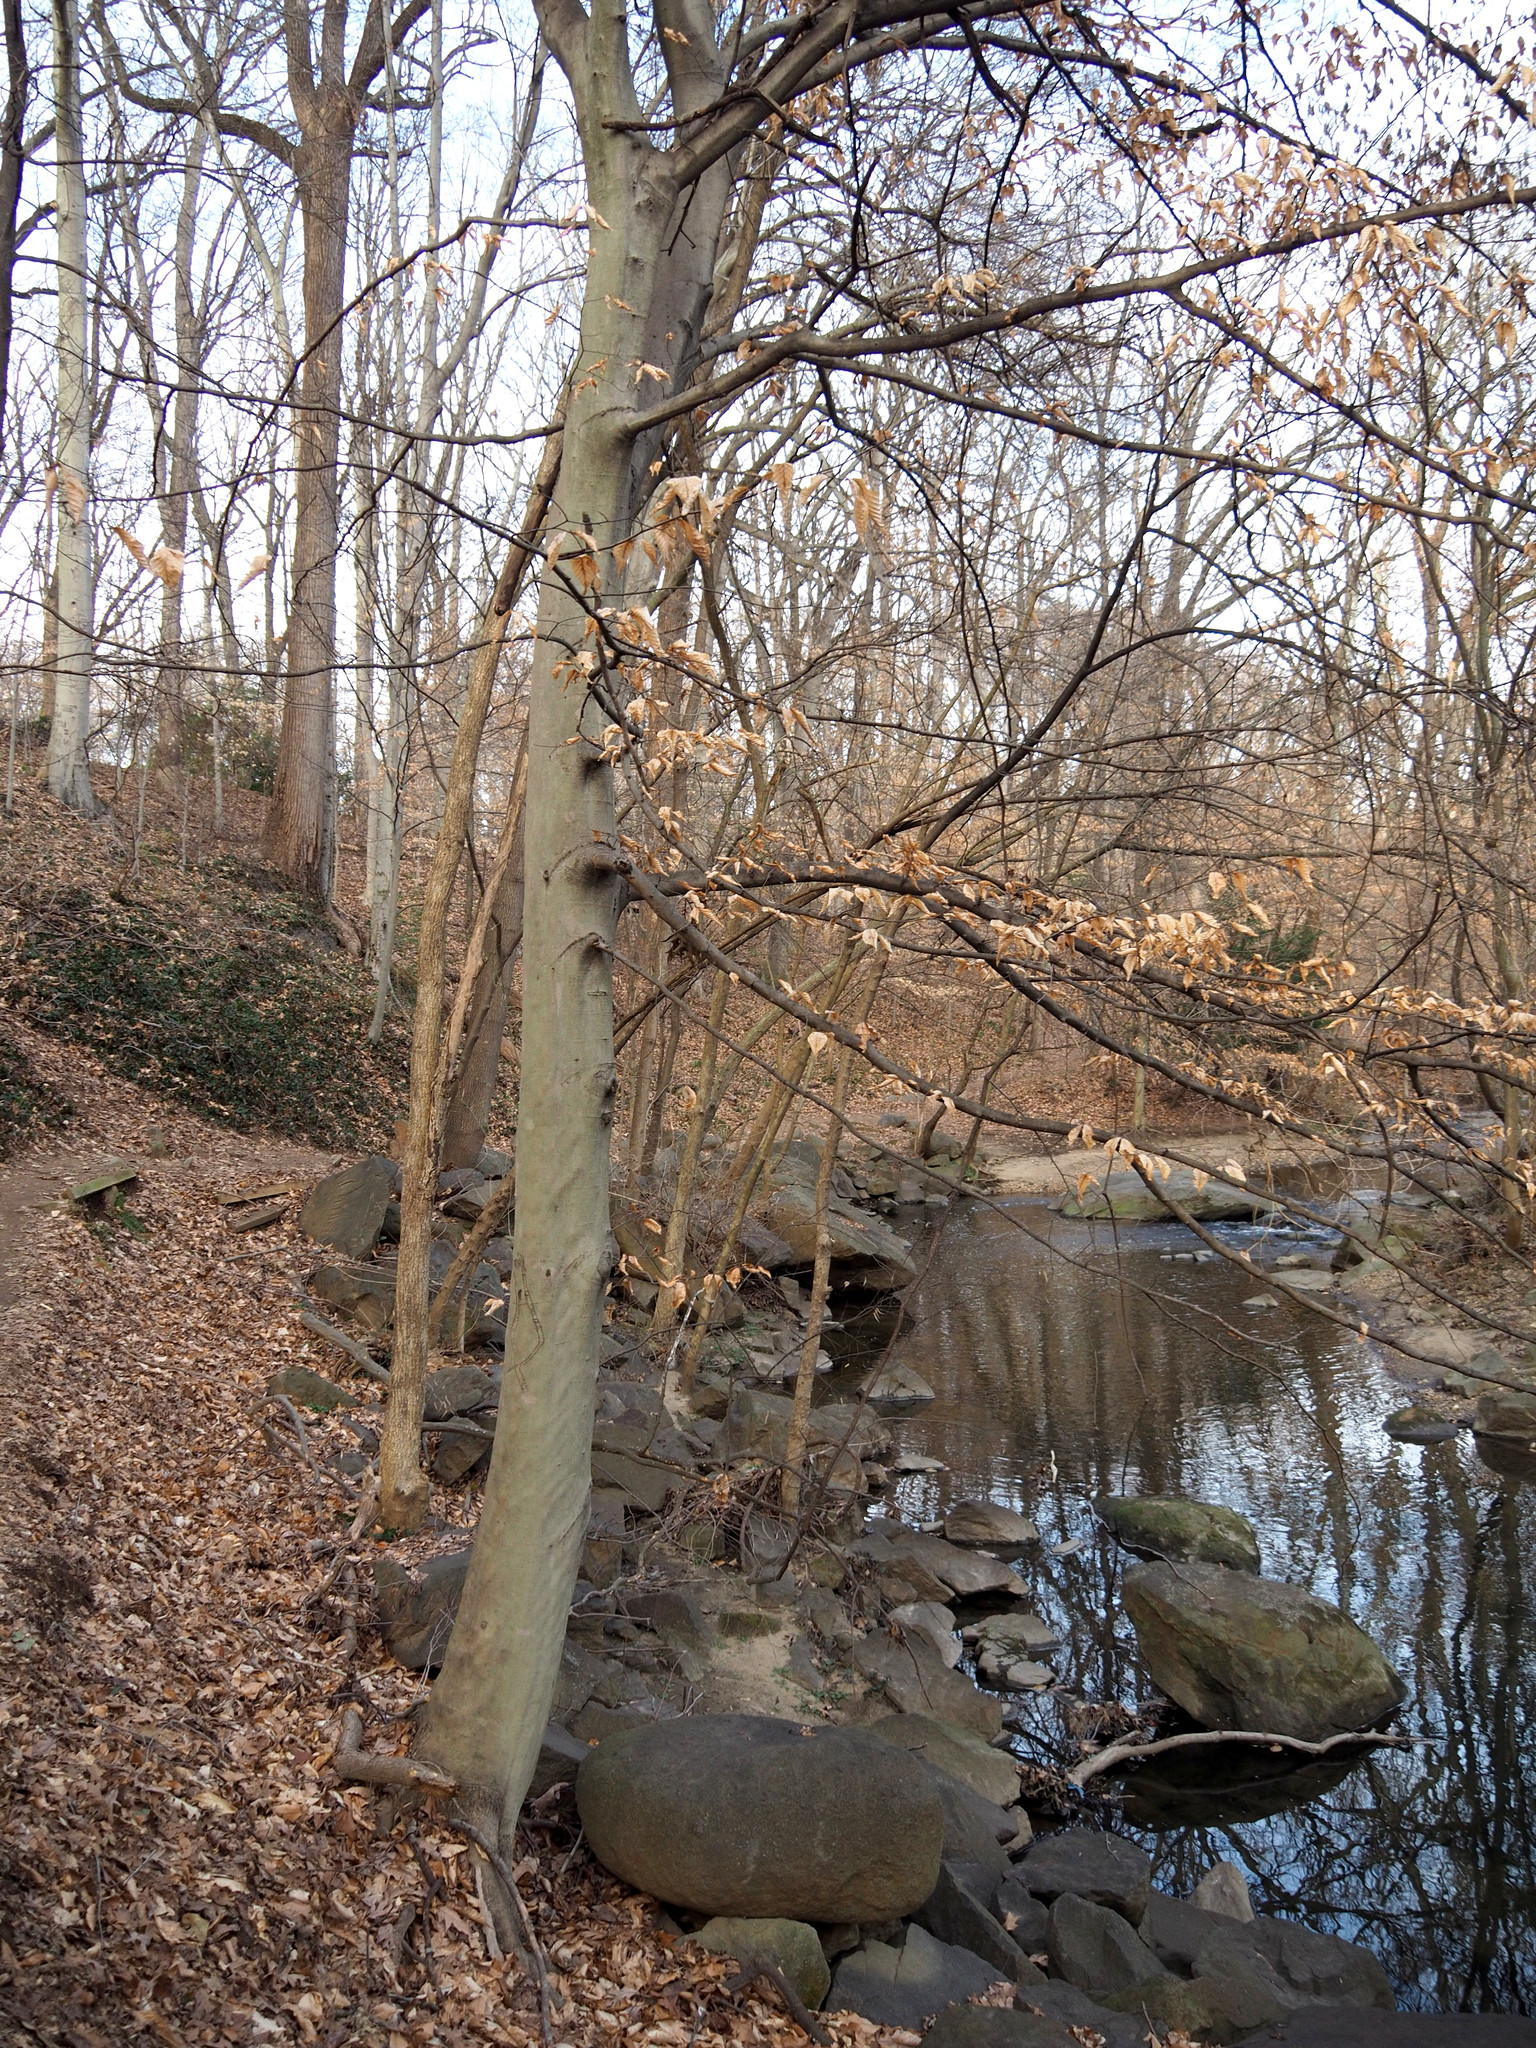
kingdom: Plantae
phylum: Tracheophyta
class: Magnoliopsida
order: Fagales
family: Fagaceae
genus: Fagus
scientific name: Fagus grandifolia
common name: American beech
